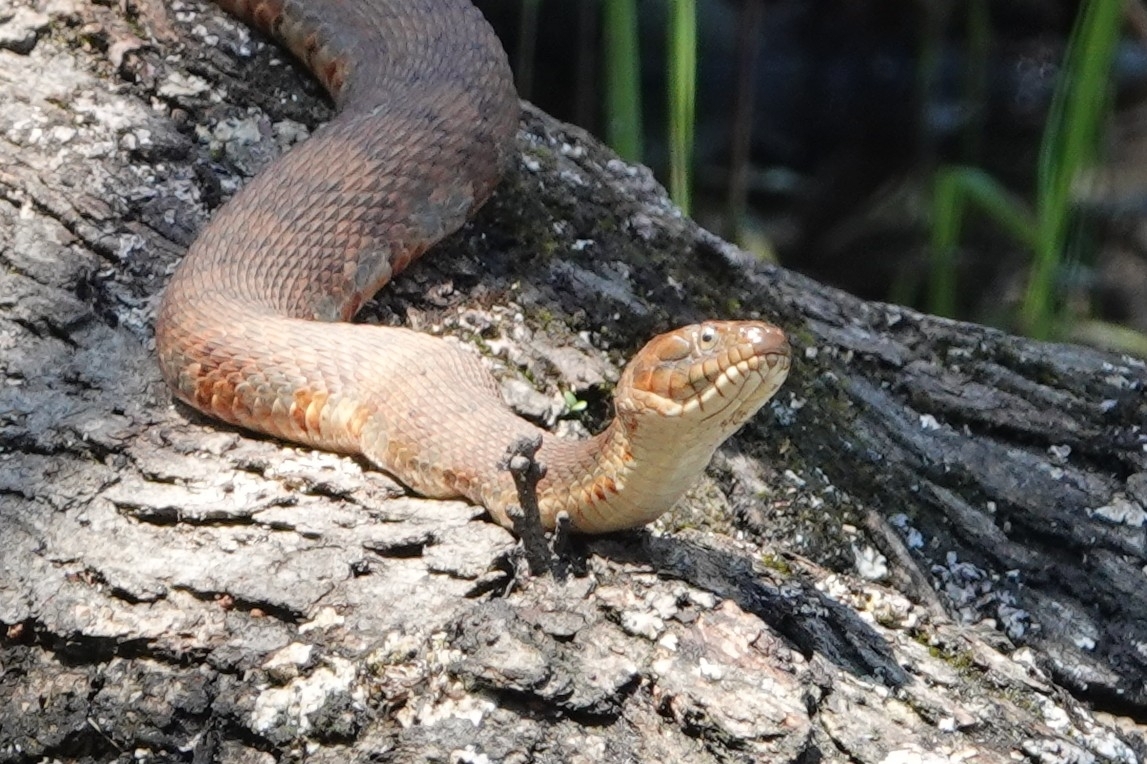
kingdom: Animalia
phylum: Chordata
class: Squamata
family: Colubridae
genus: Nerodia
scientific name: Nerodia sipedon
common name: Northern water snake
